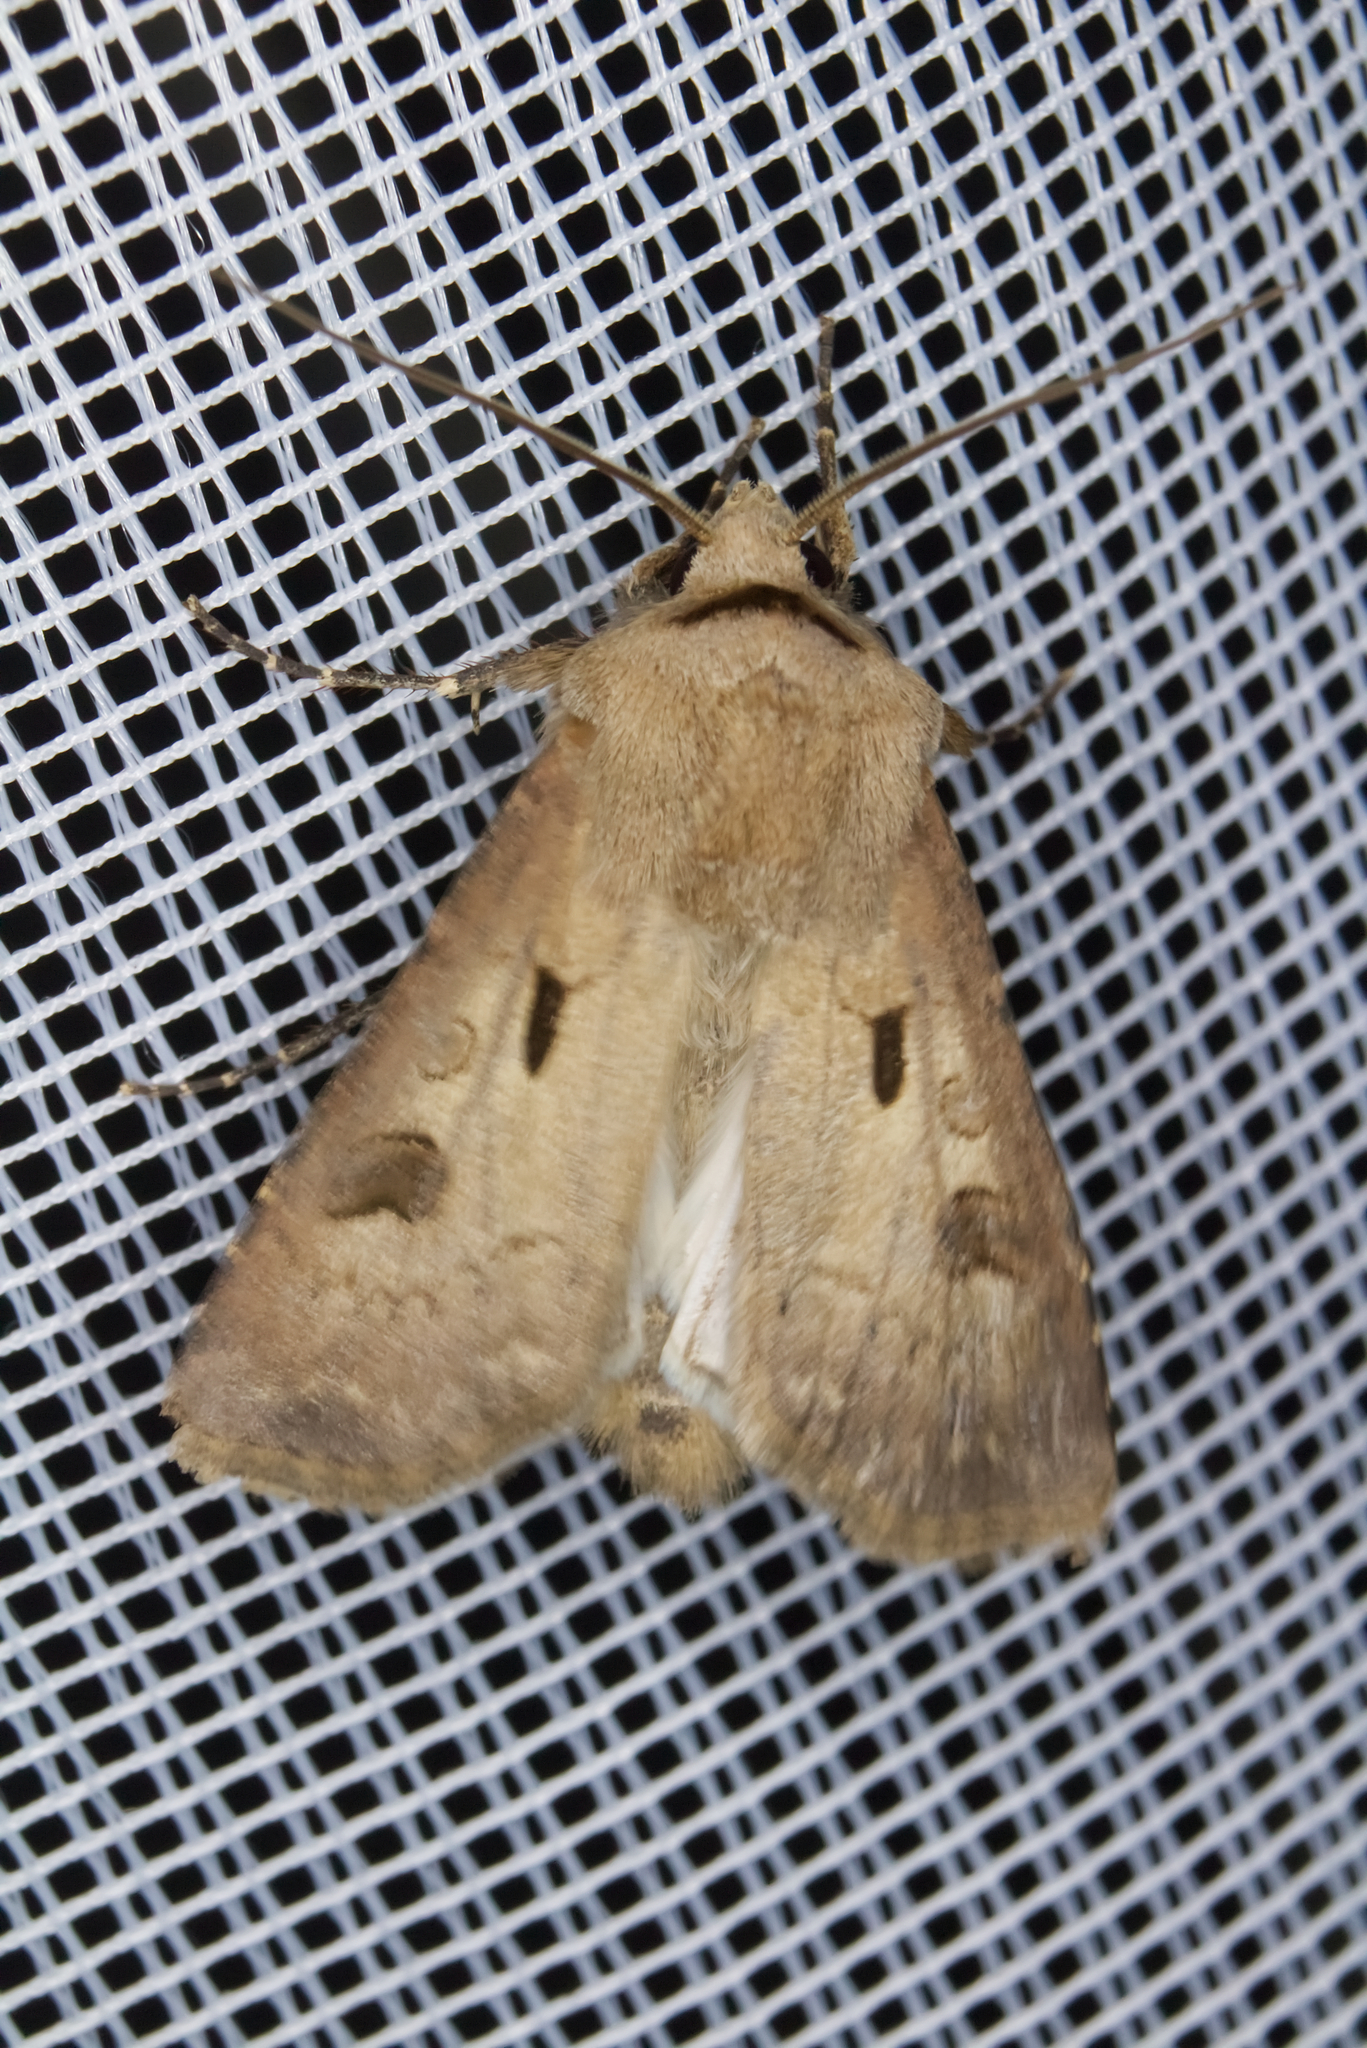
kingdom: Animalia
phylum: Arthropoda
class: Insecta
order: Lepidoptera
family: Noctuidae
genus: Agrotis
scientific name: Agrotis exclamationis
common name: Heart and dart
